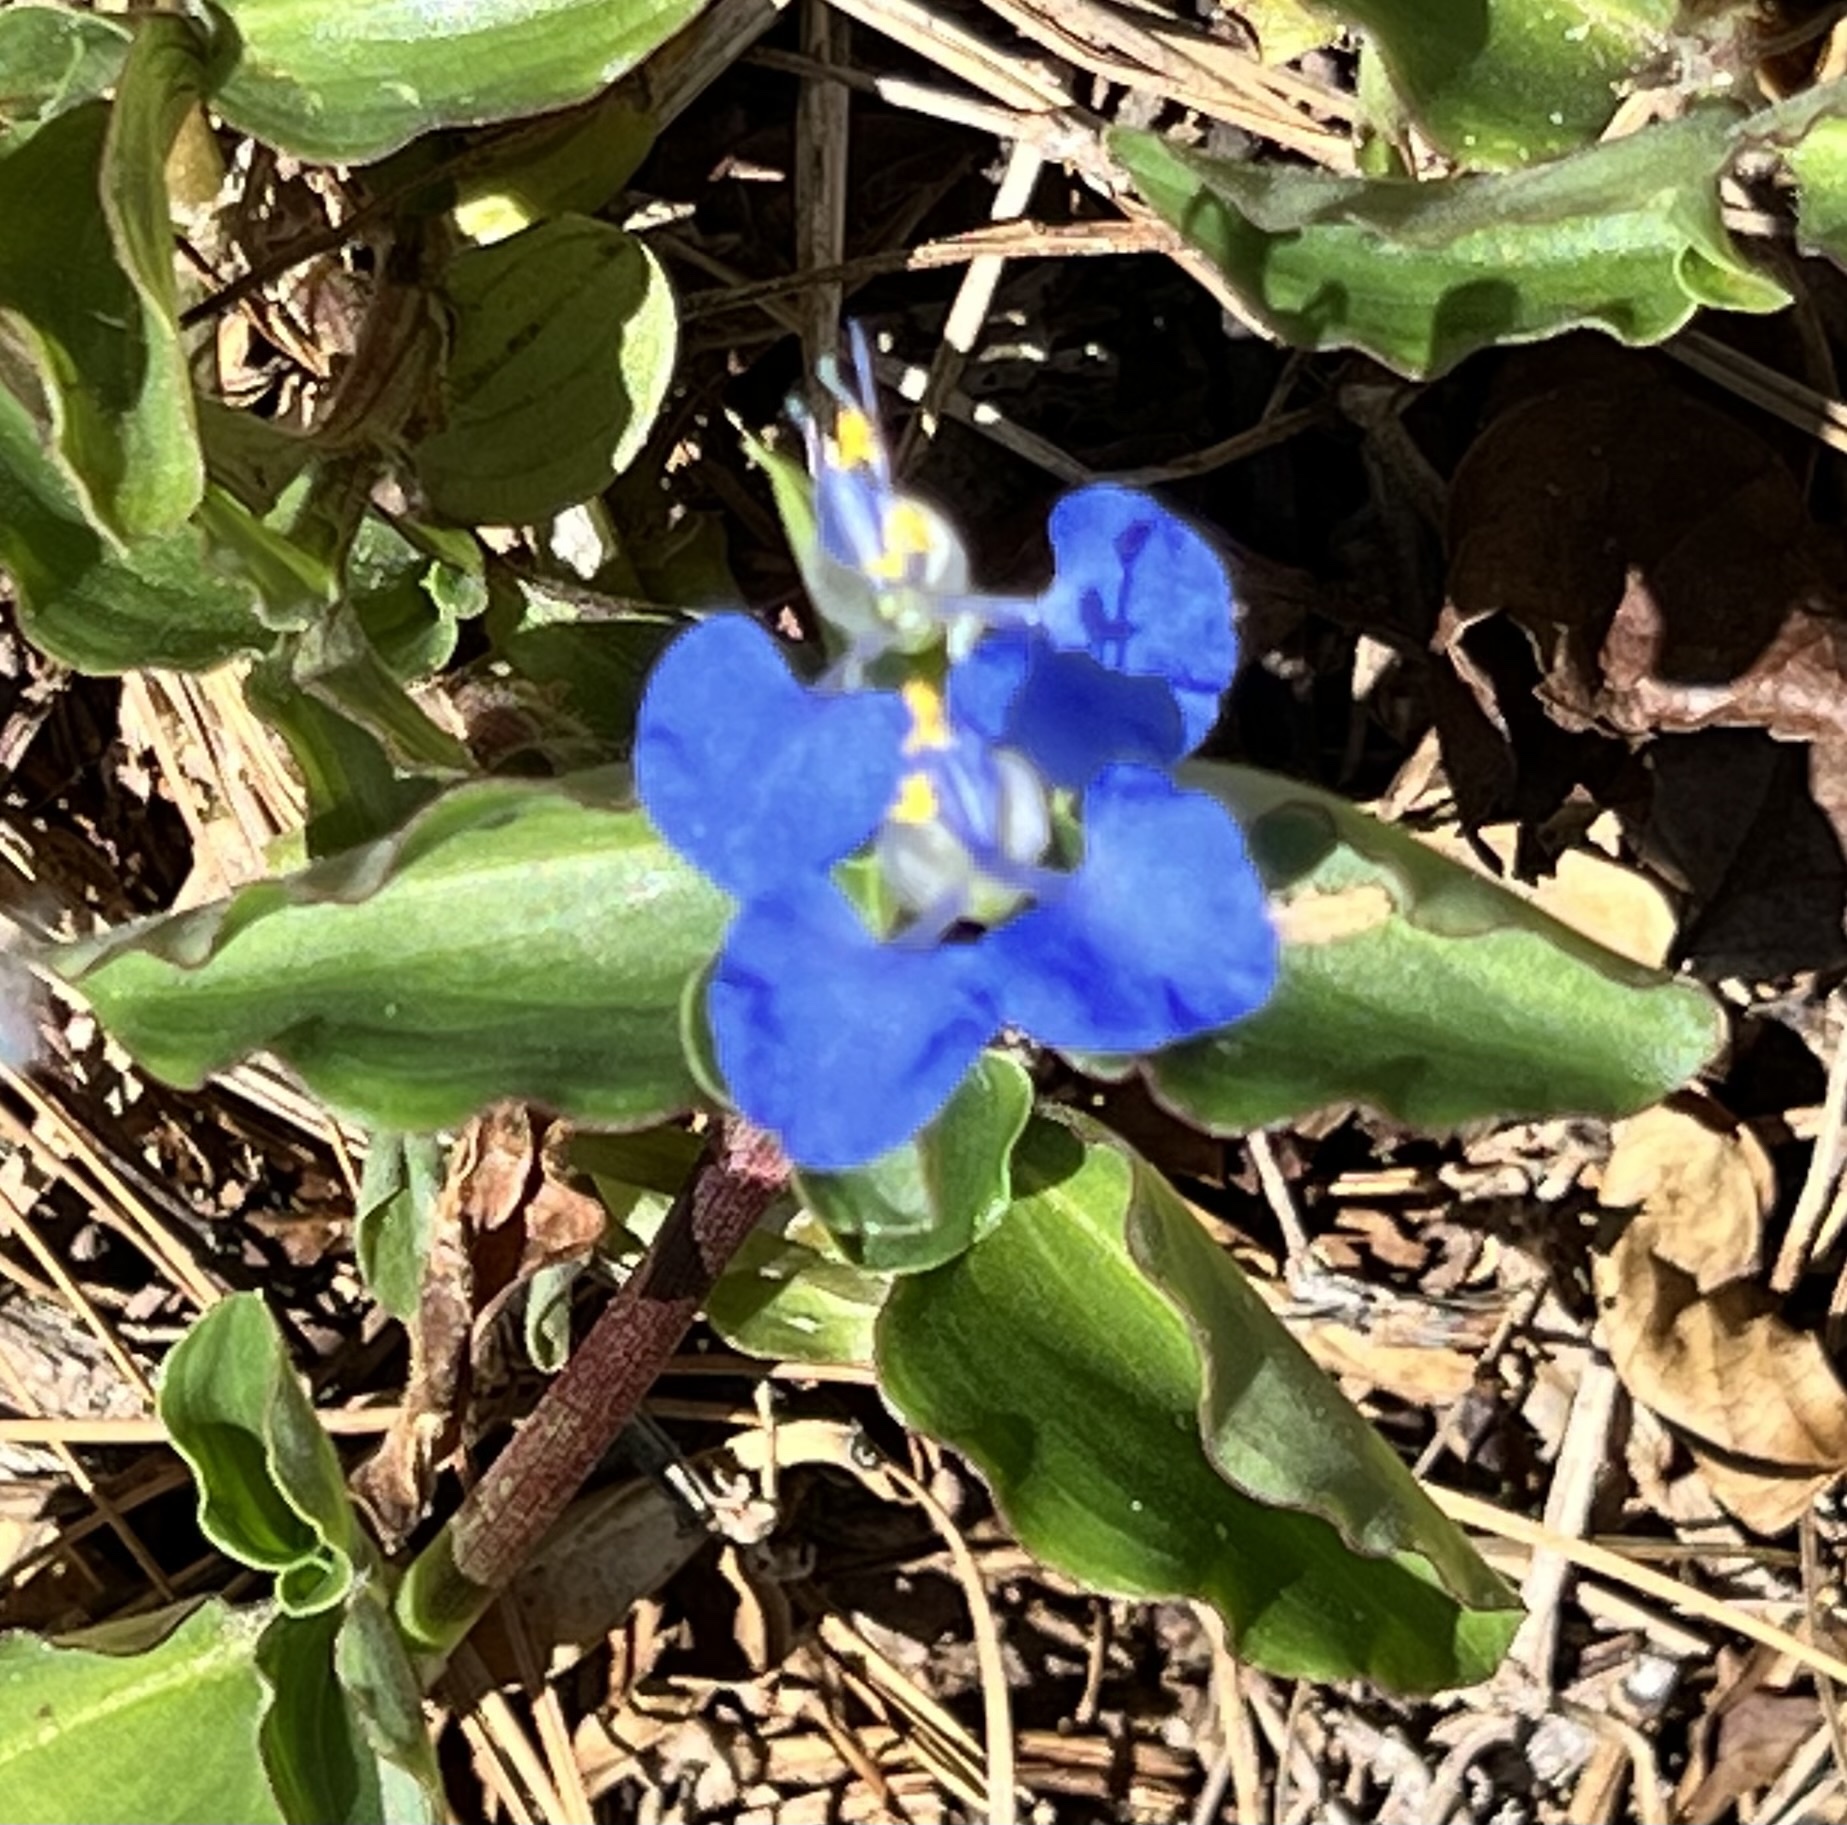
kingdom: Plantae
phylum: Tracheophyta
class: Liliopsida
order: Commelinales
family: Commelinaceae
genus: Commelina
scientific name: Commelina benghalensis
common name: Jio
